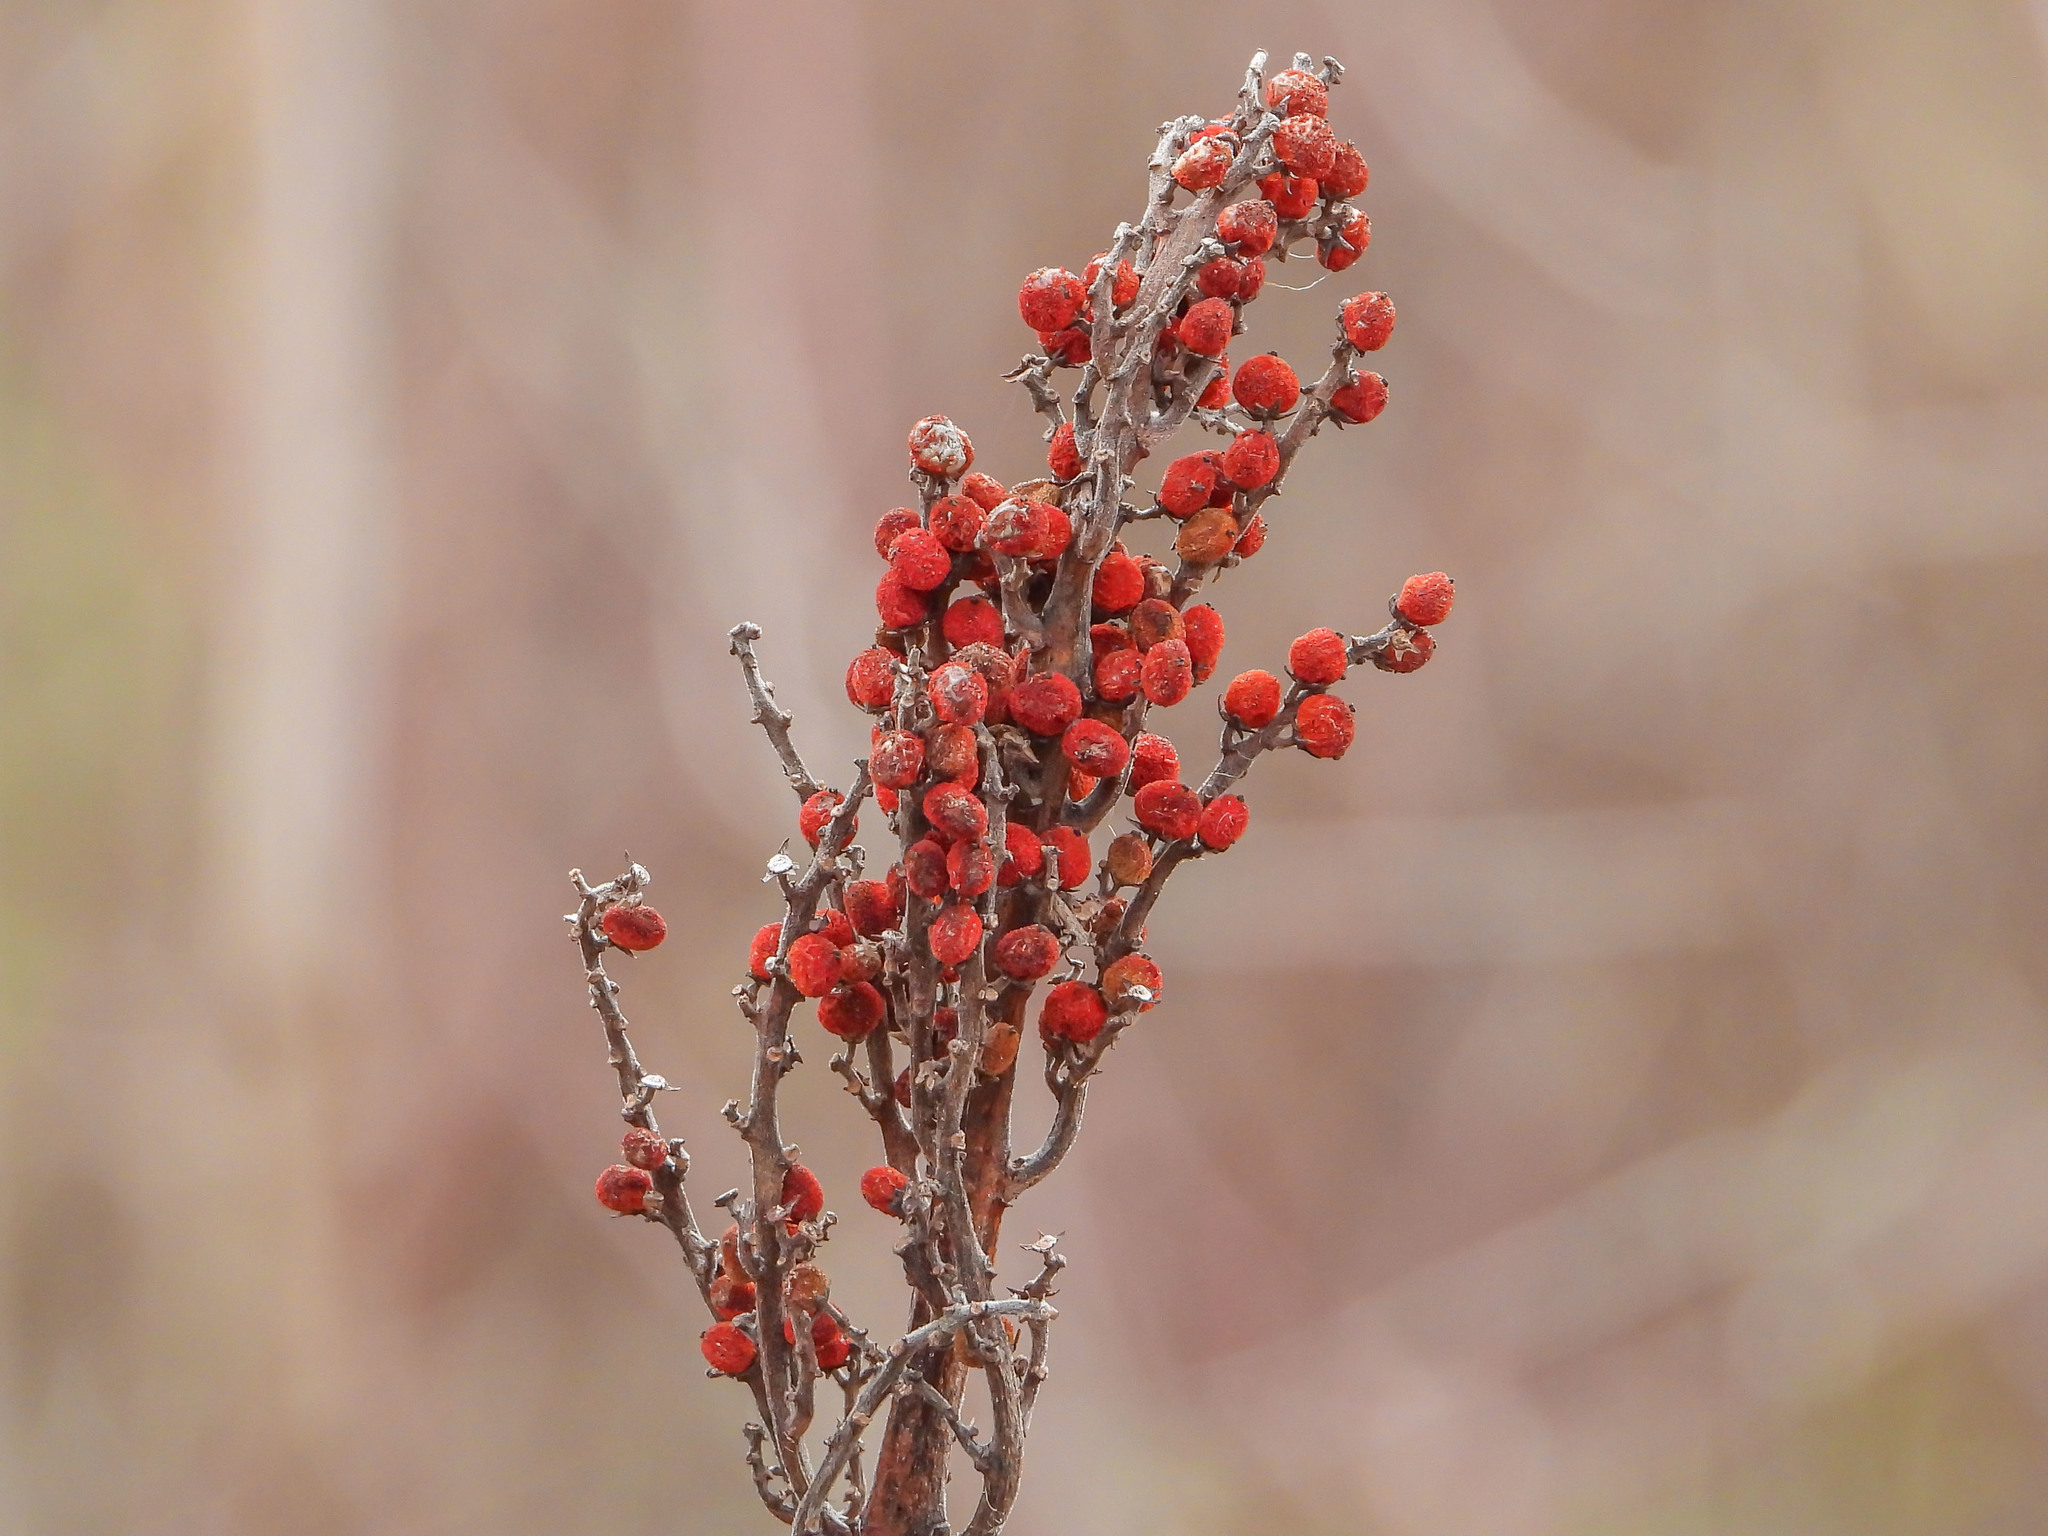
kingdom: Plantae
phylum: Tracheophyta
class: Magnoliopsida
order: Sapindales
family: Anacardiaceae
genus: Rhus
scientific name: Rhus glabra
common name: Scarlet sumac
